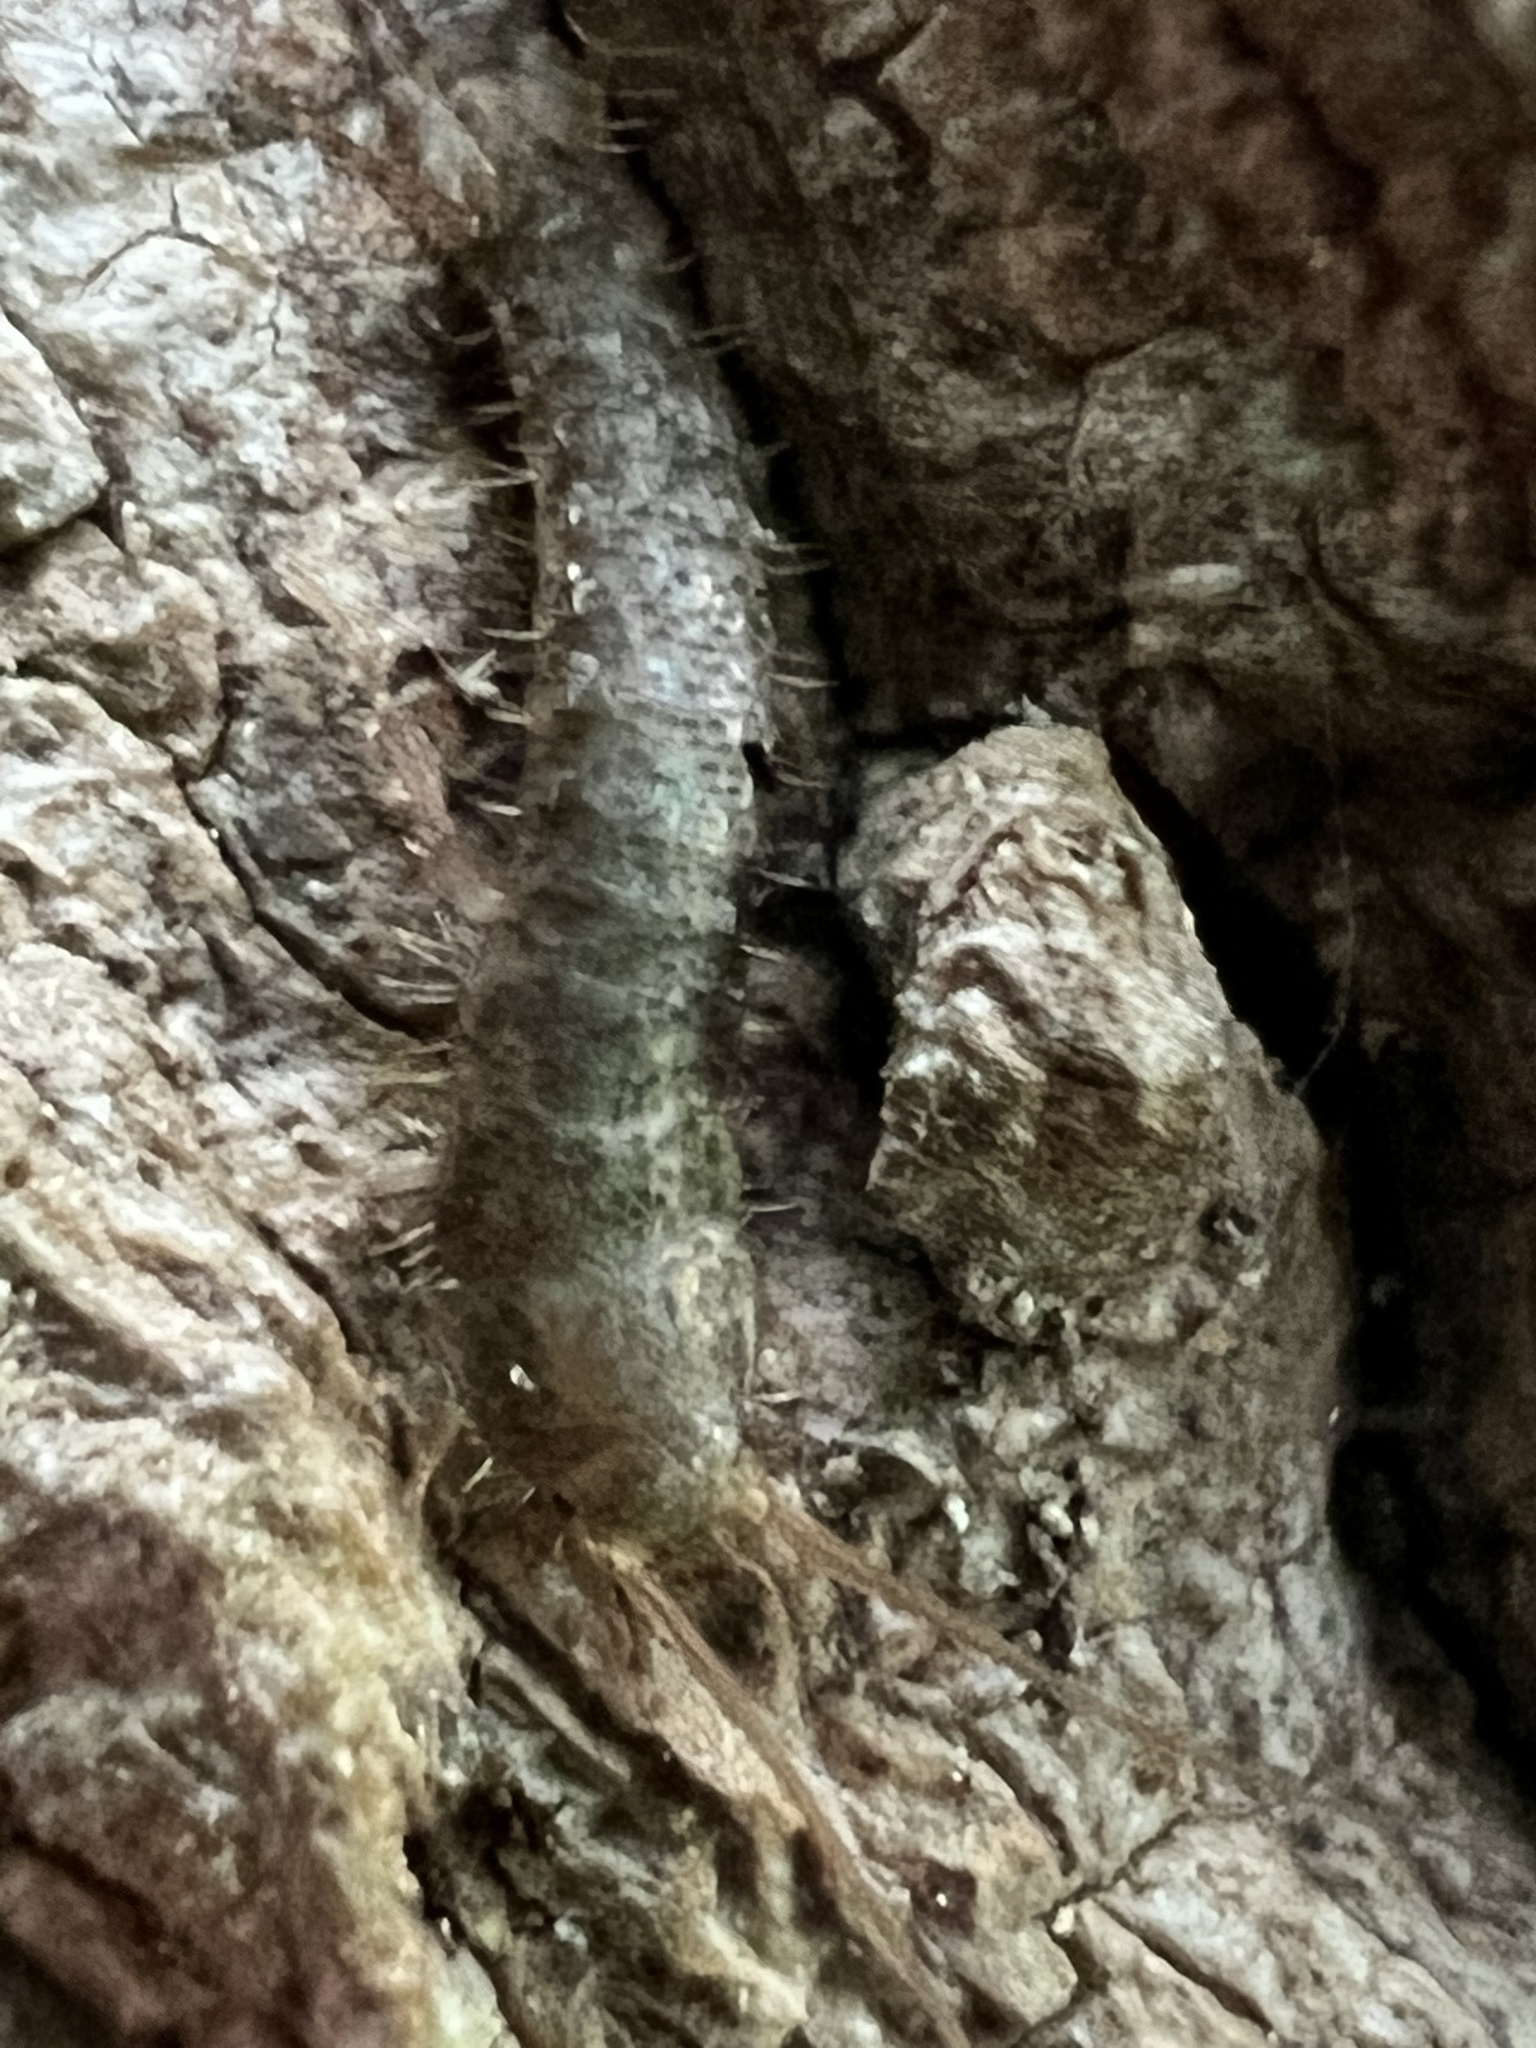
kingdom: Animalia
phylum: Arthropoda
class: Insecta
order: Zygentoma
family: Lepismatidae
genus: Allacrotelsa
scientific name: Allacrotelsa spinulata
